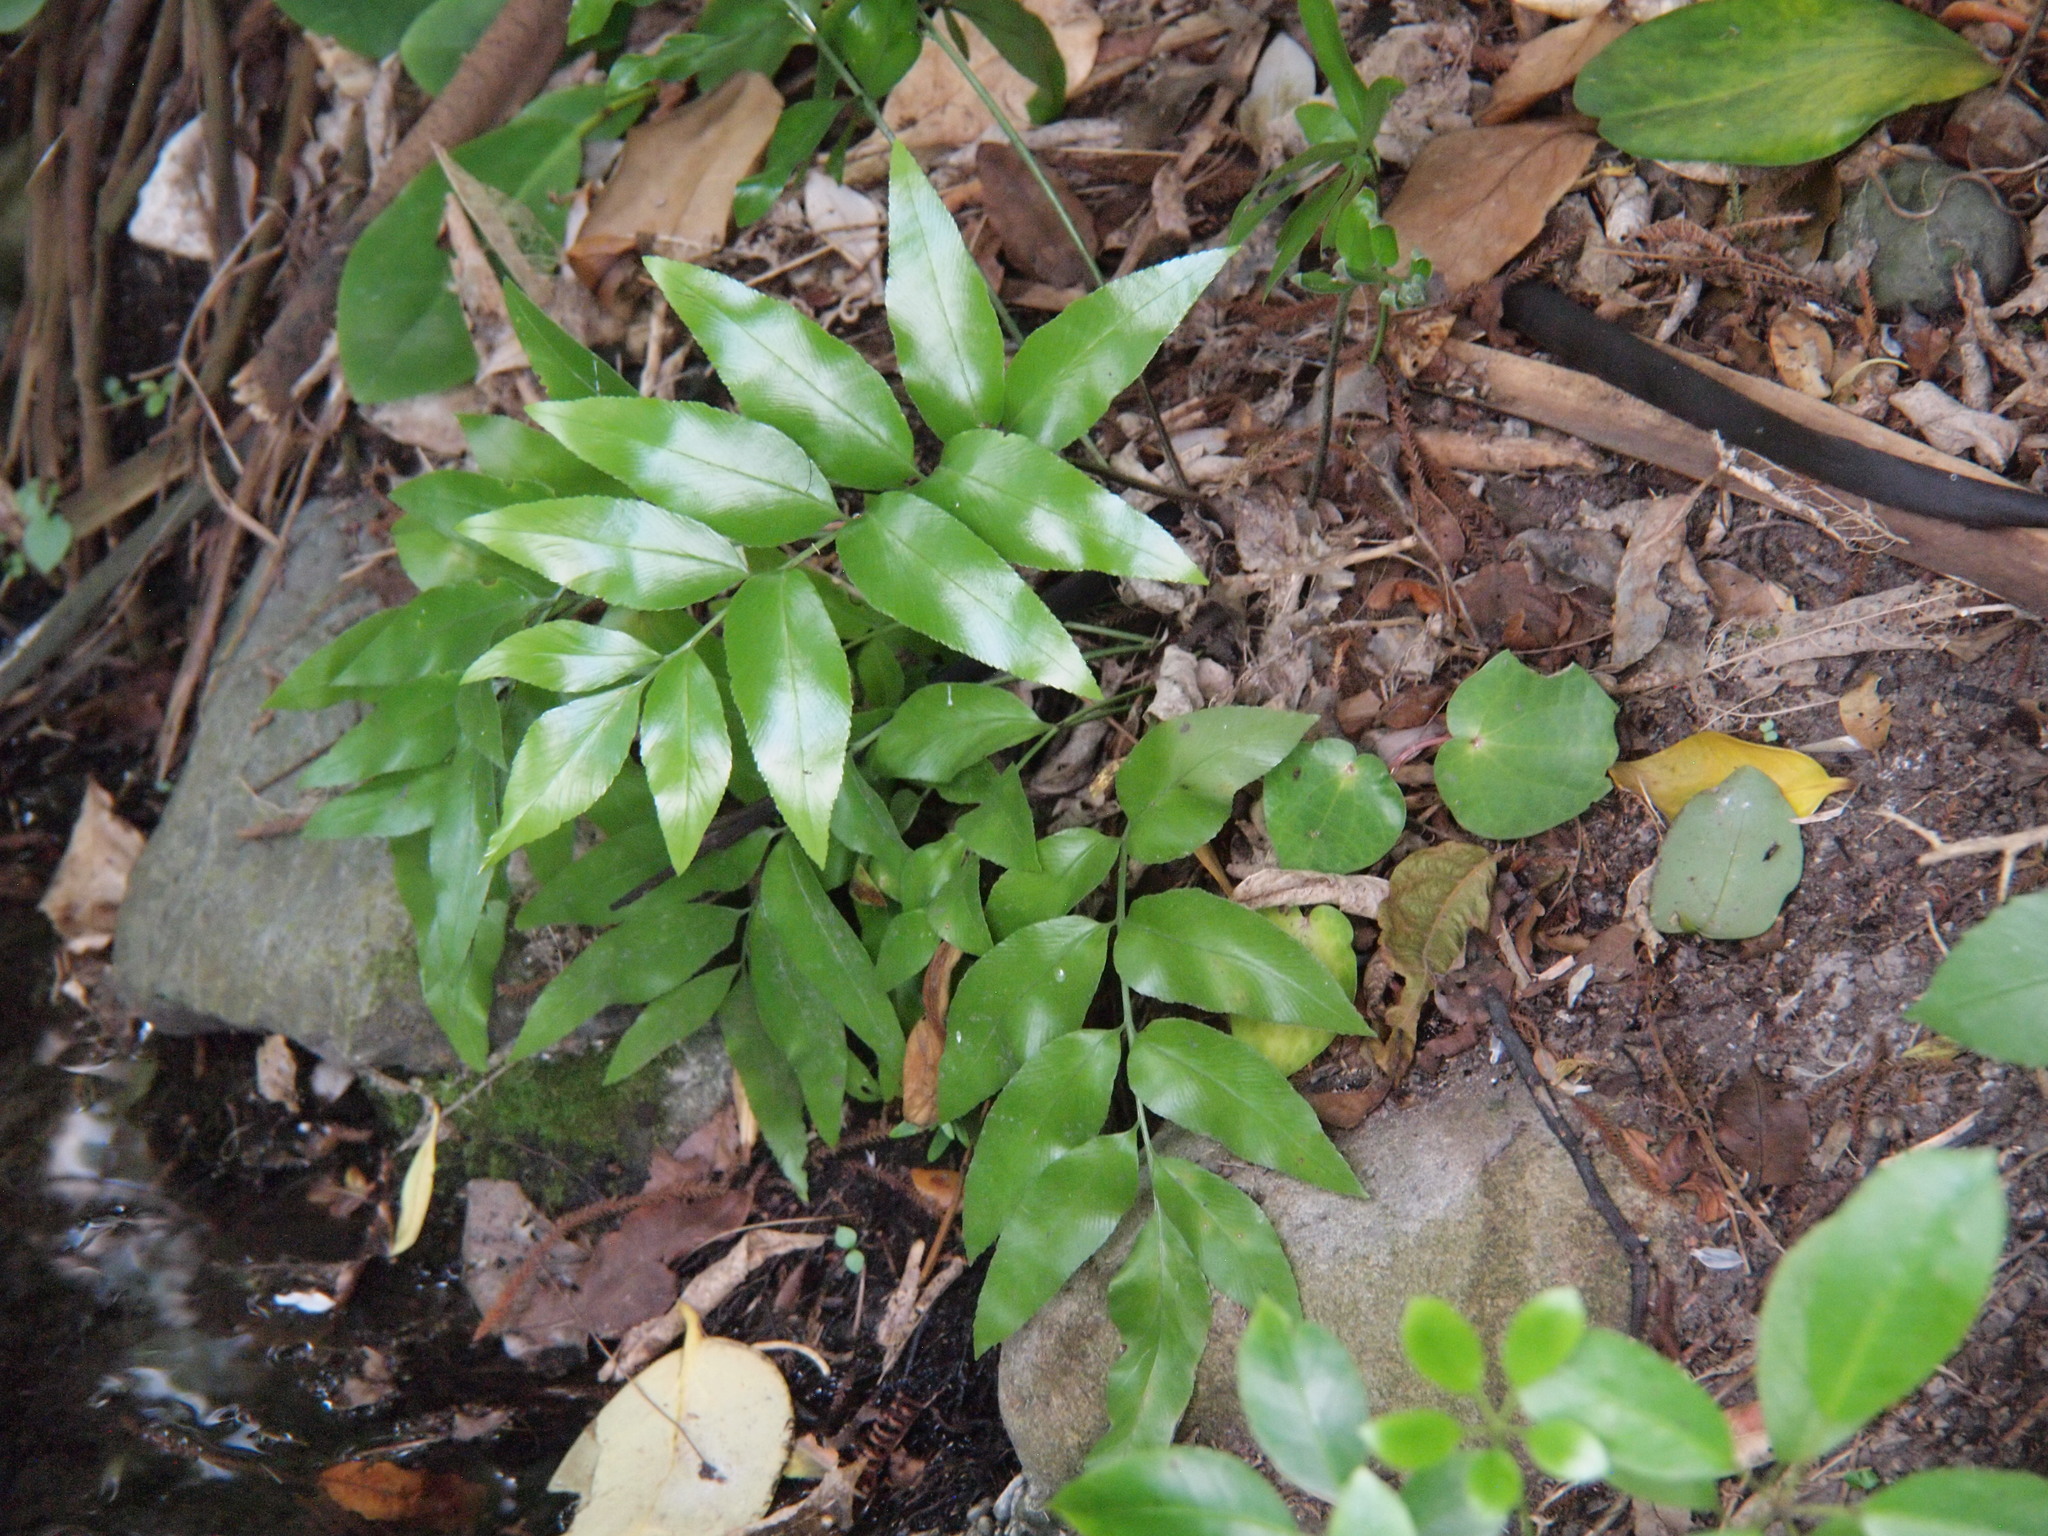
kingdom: Plantae
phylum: Tracheophyta
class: Polypodiopsida
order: Polypodiales
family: Aspleniaceae
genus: Asplenium
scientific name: Asplenium oblongifolium
